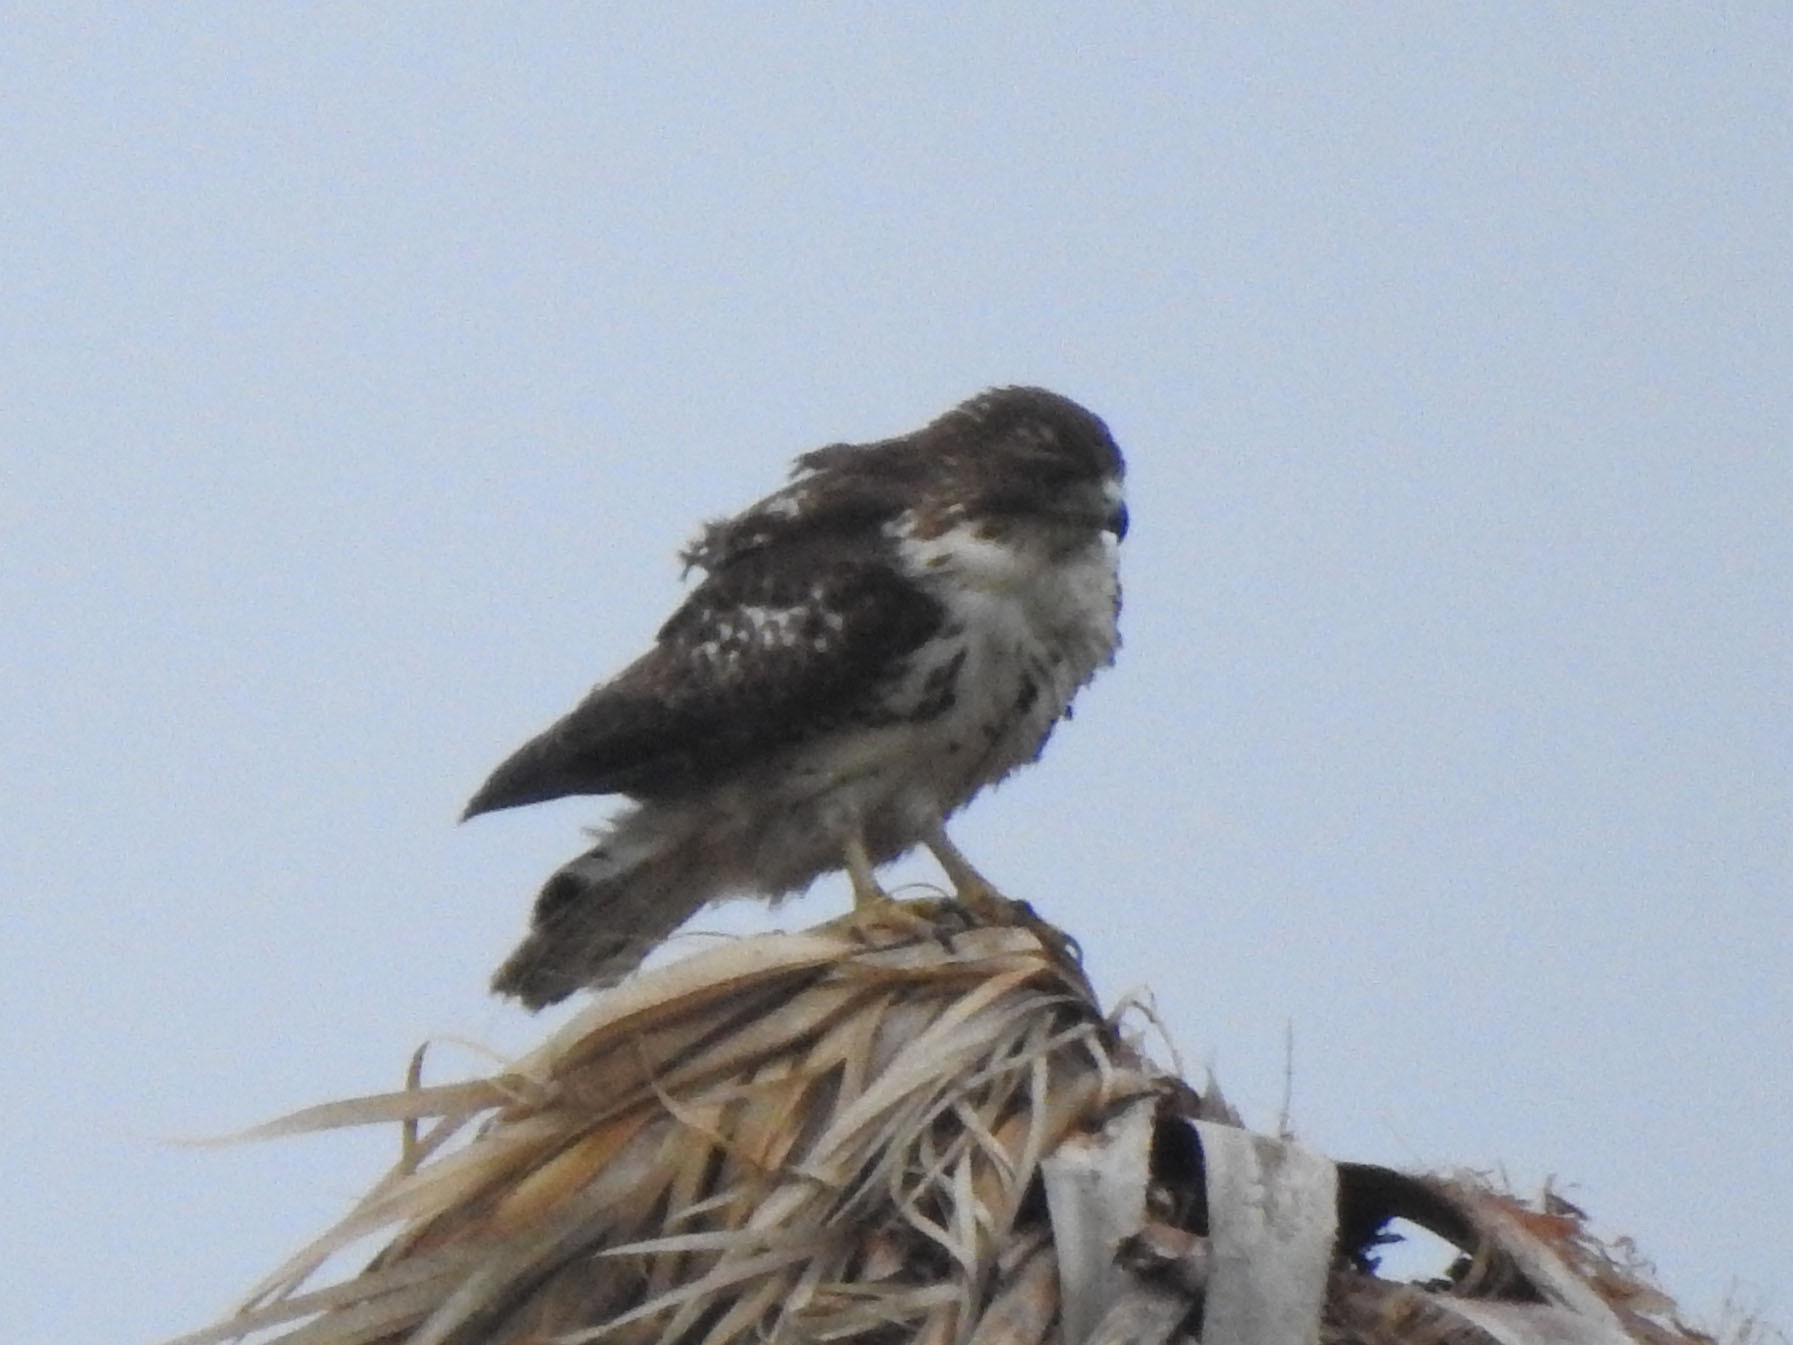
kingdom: Animalia
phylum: Chordata
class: Aves
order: Accipitriformes
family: Accipitridae
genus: Buteo
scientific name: Buteo jamaicensis
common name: Red-tailed hawk
